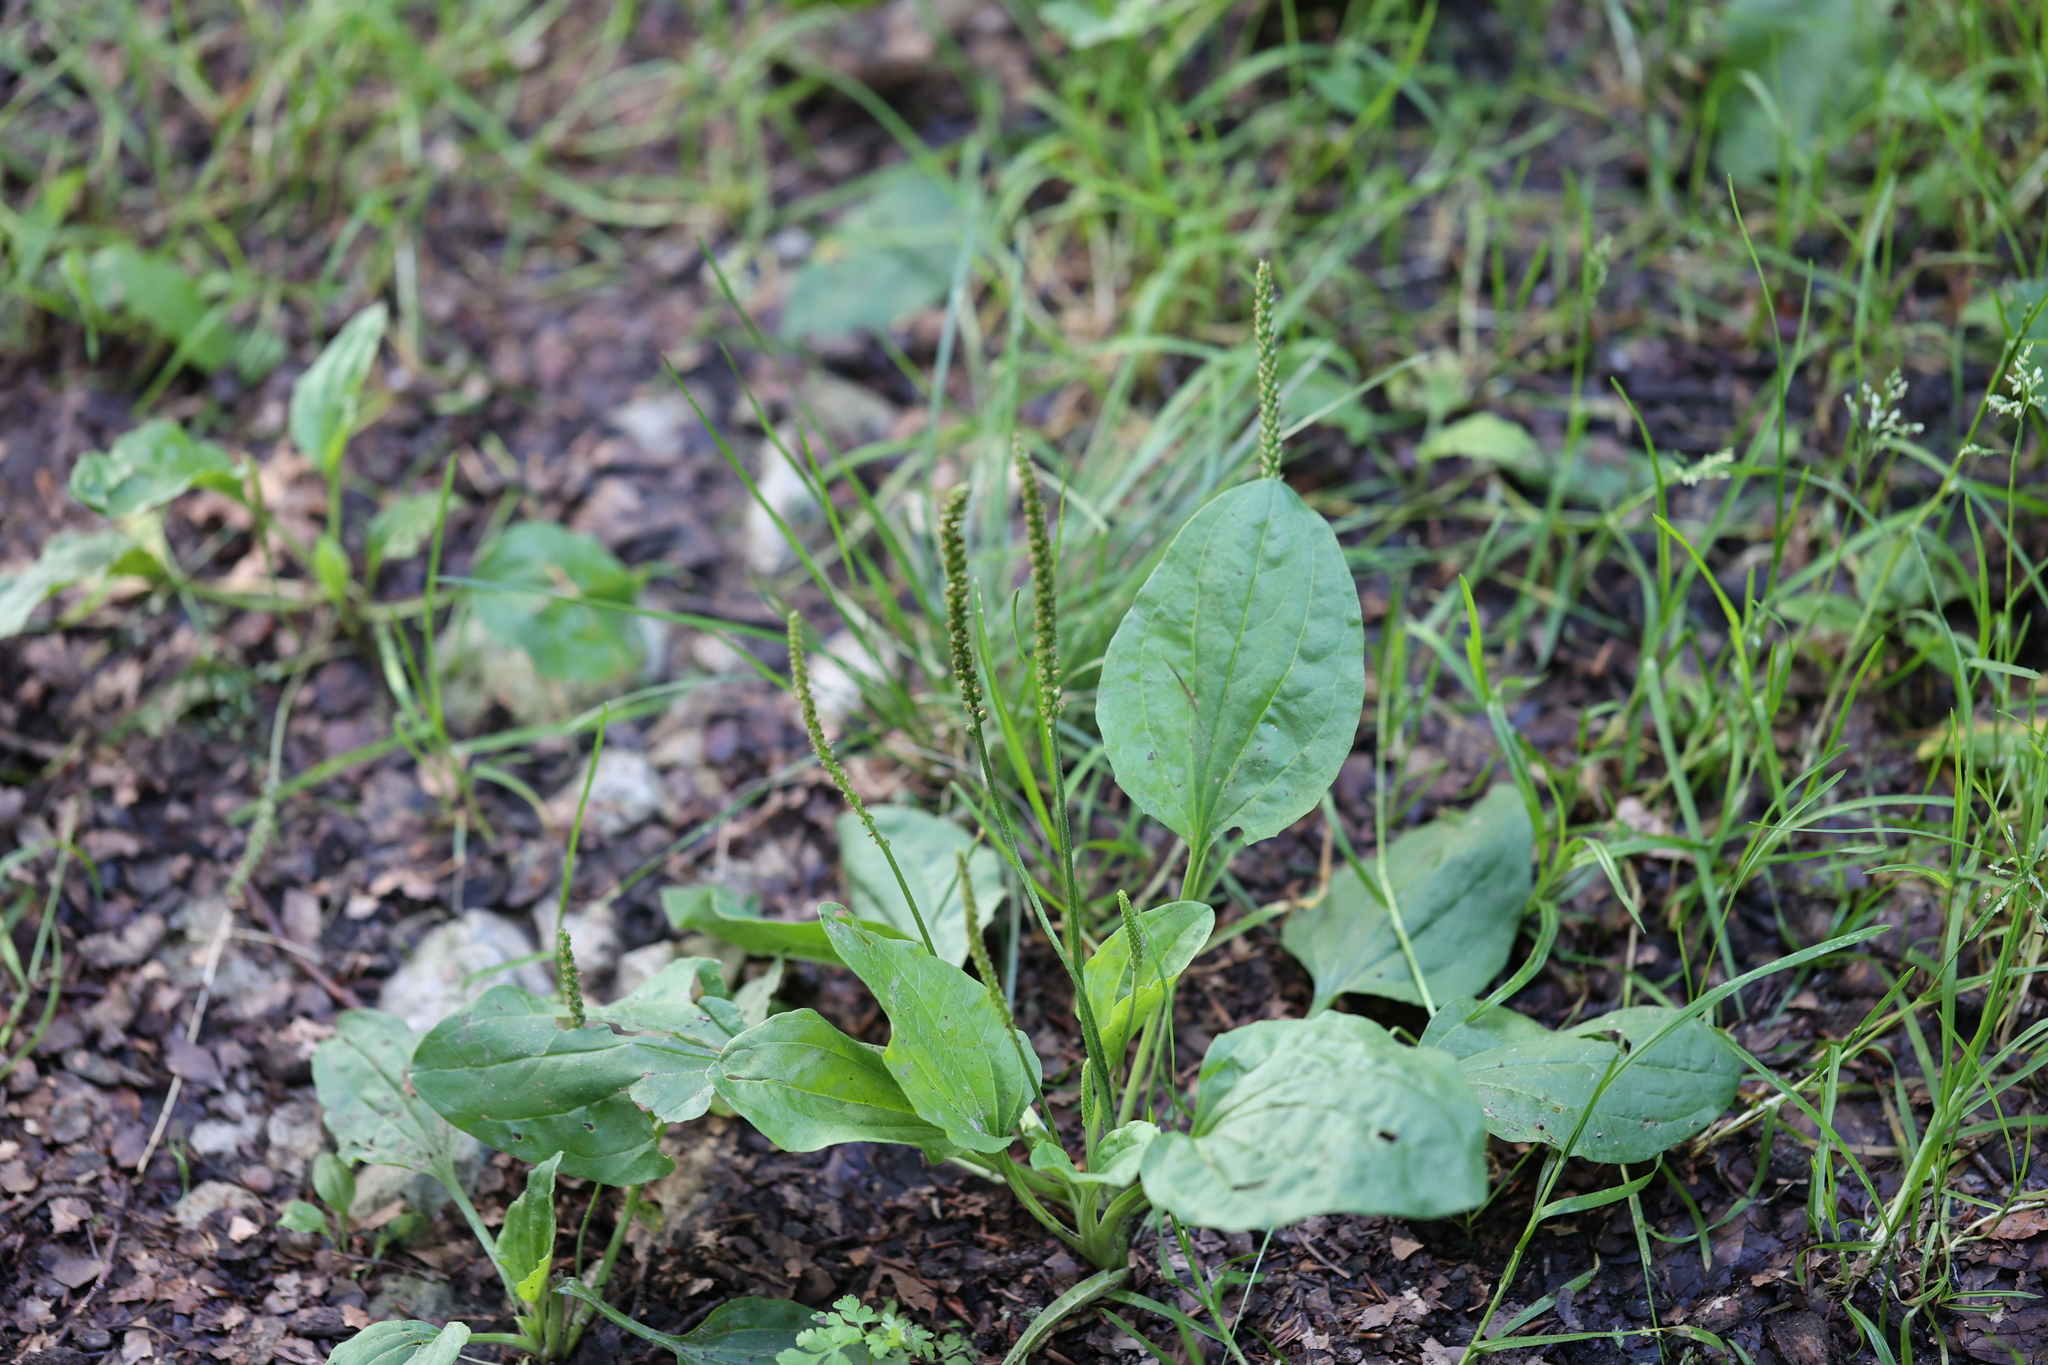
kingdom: Plantae
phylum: Tracheophyta
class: Magnoliopsida
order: Lamiales
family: Plantaginaceae
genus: Plantago
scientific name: Plantago major
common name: Common plantain
